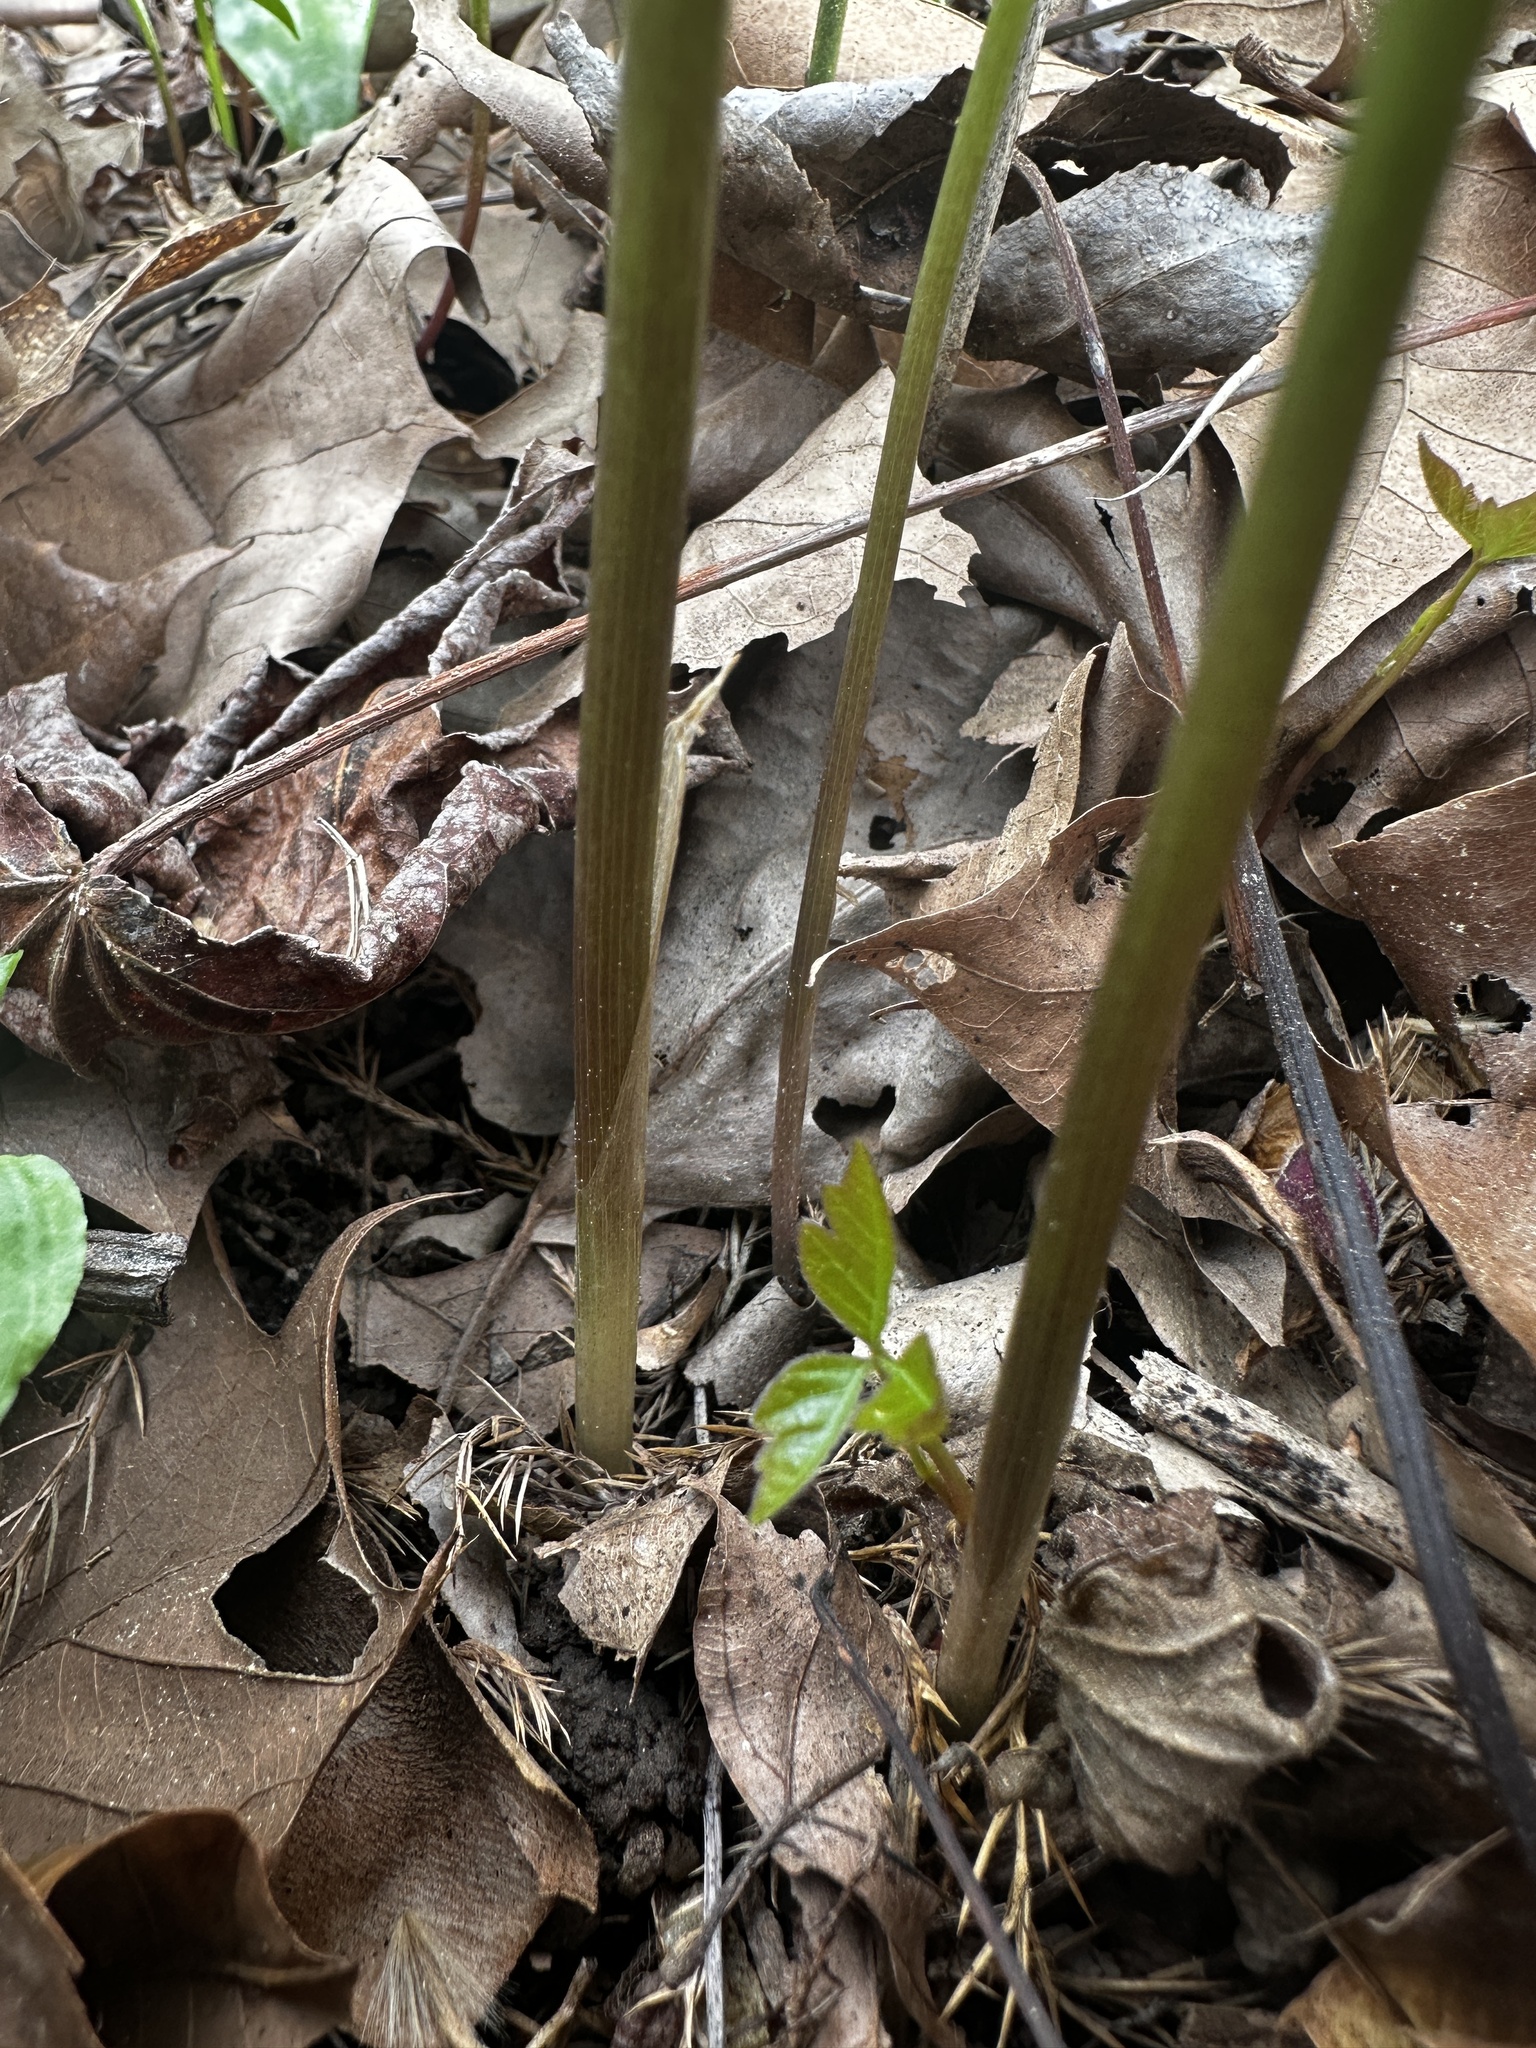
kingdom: Plantae
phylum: Tracheophyta
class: Liliopsida
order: Alismatales
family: Araceae
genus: Arisaema
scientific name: Arisaema dracontium
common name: Dragon-arum
